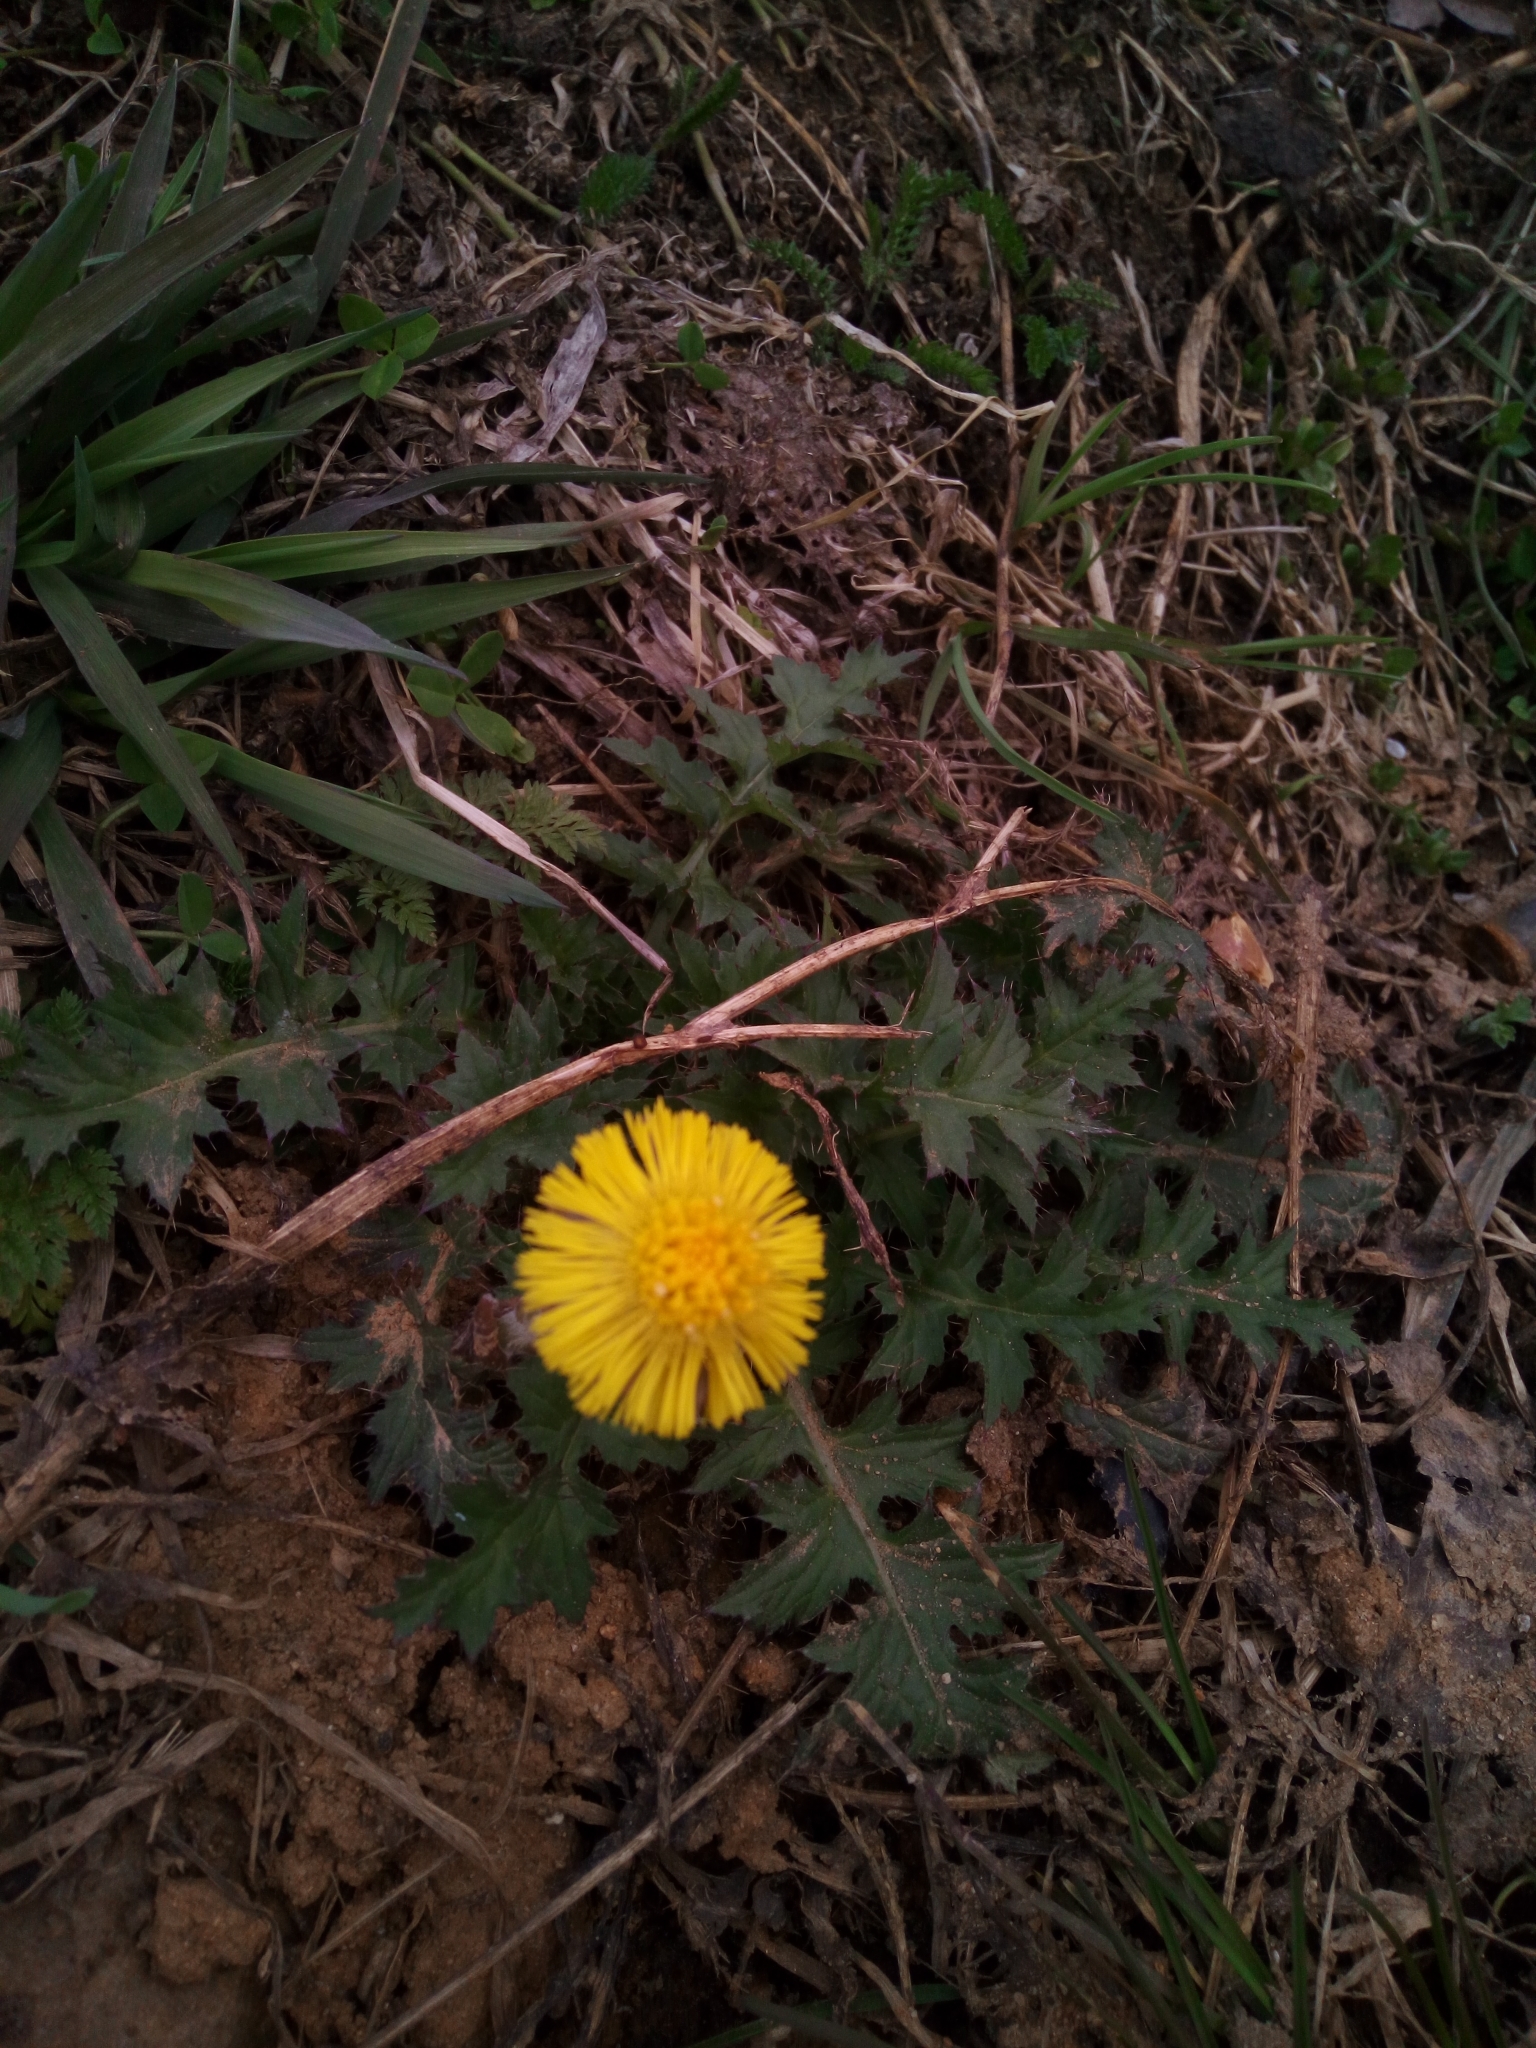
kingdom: Plantae
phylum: Tracheophyta
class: Magnoliopsida
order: Asterales
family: Asteraceae
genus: Tussilago
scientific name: Tussilago farfara
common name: Coltsfoot
